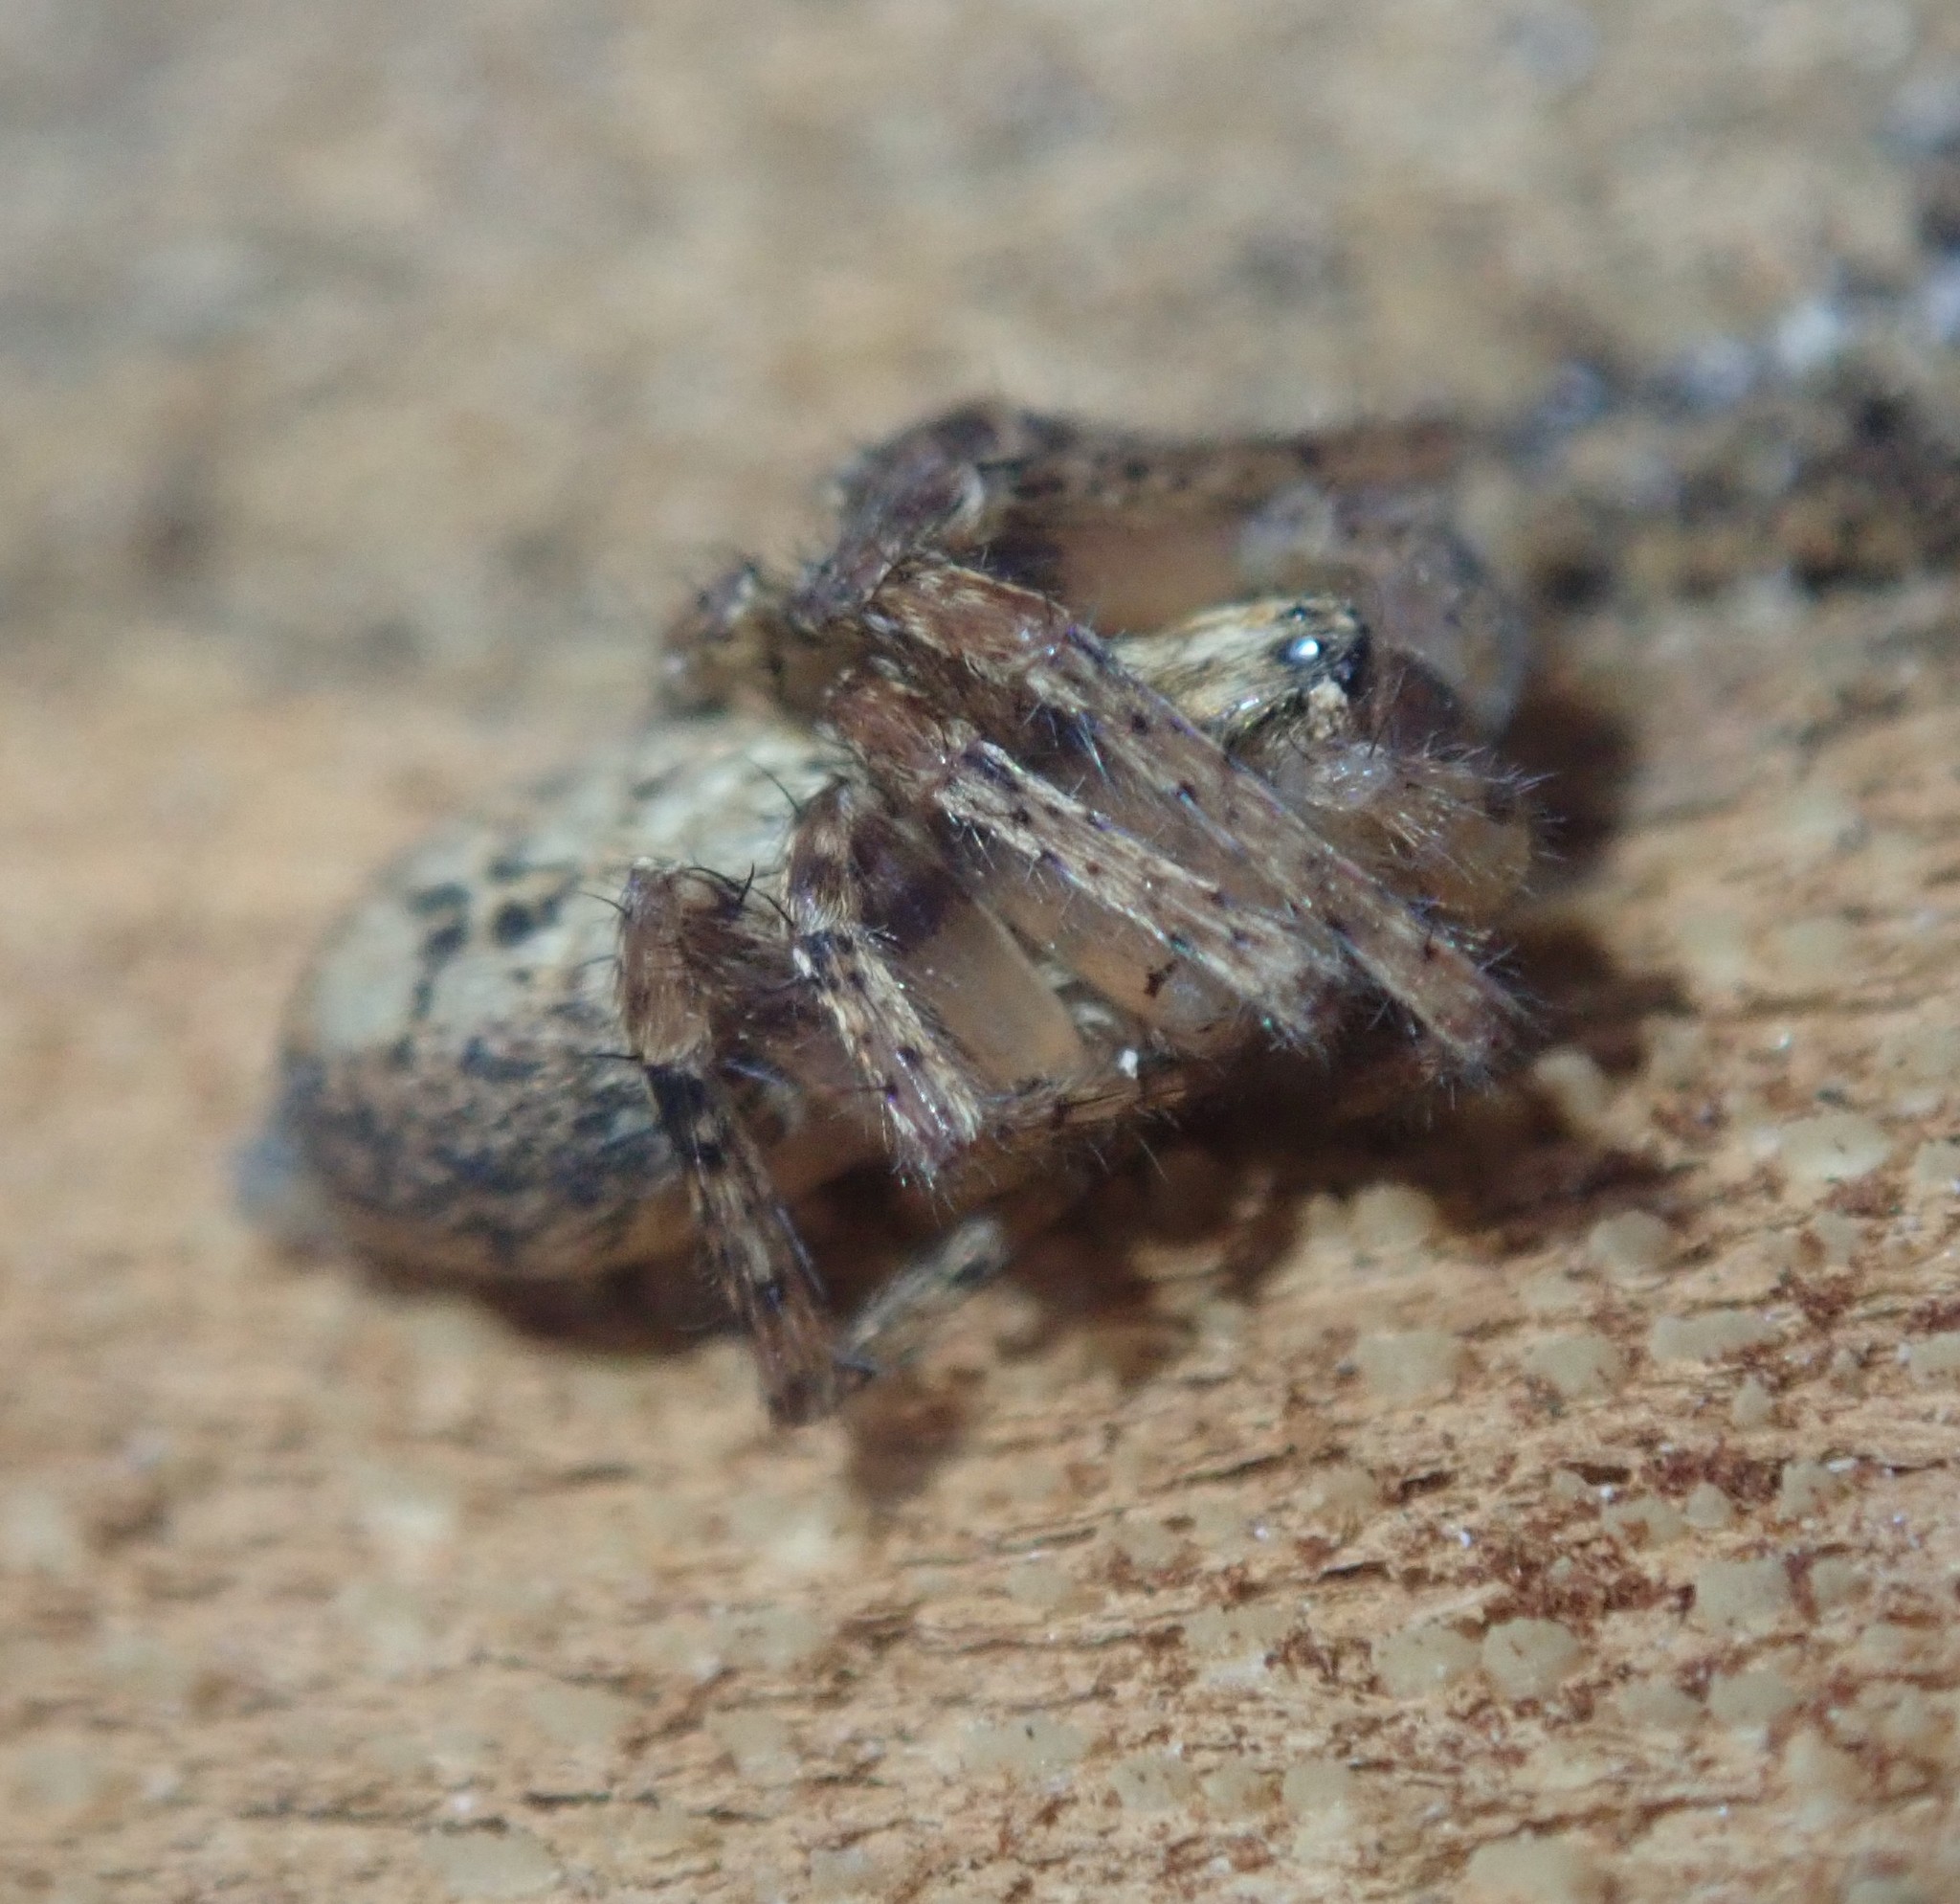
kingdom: Animalia
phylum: Arthropoda
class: Arachnida
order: Araneae
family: Anyphaenidae
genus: Anyphaena
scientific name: Anyphaena accentuata
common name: Buzzing spider
